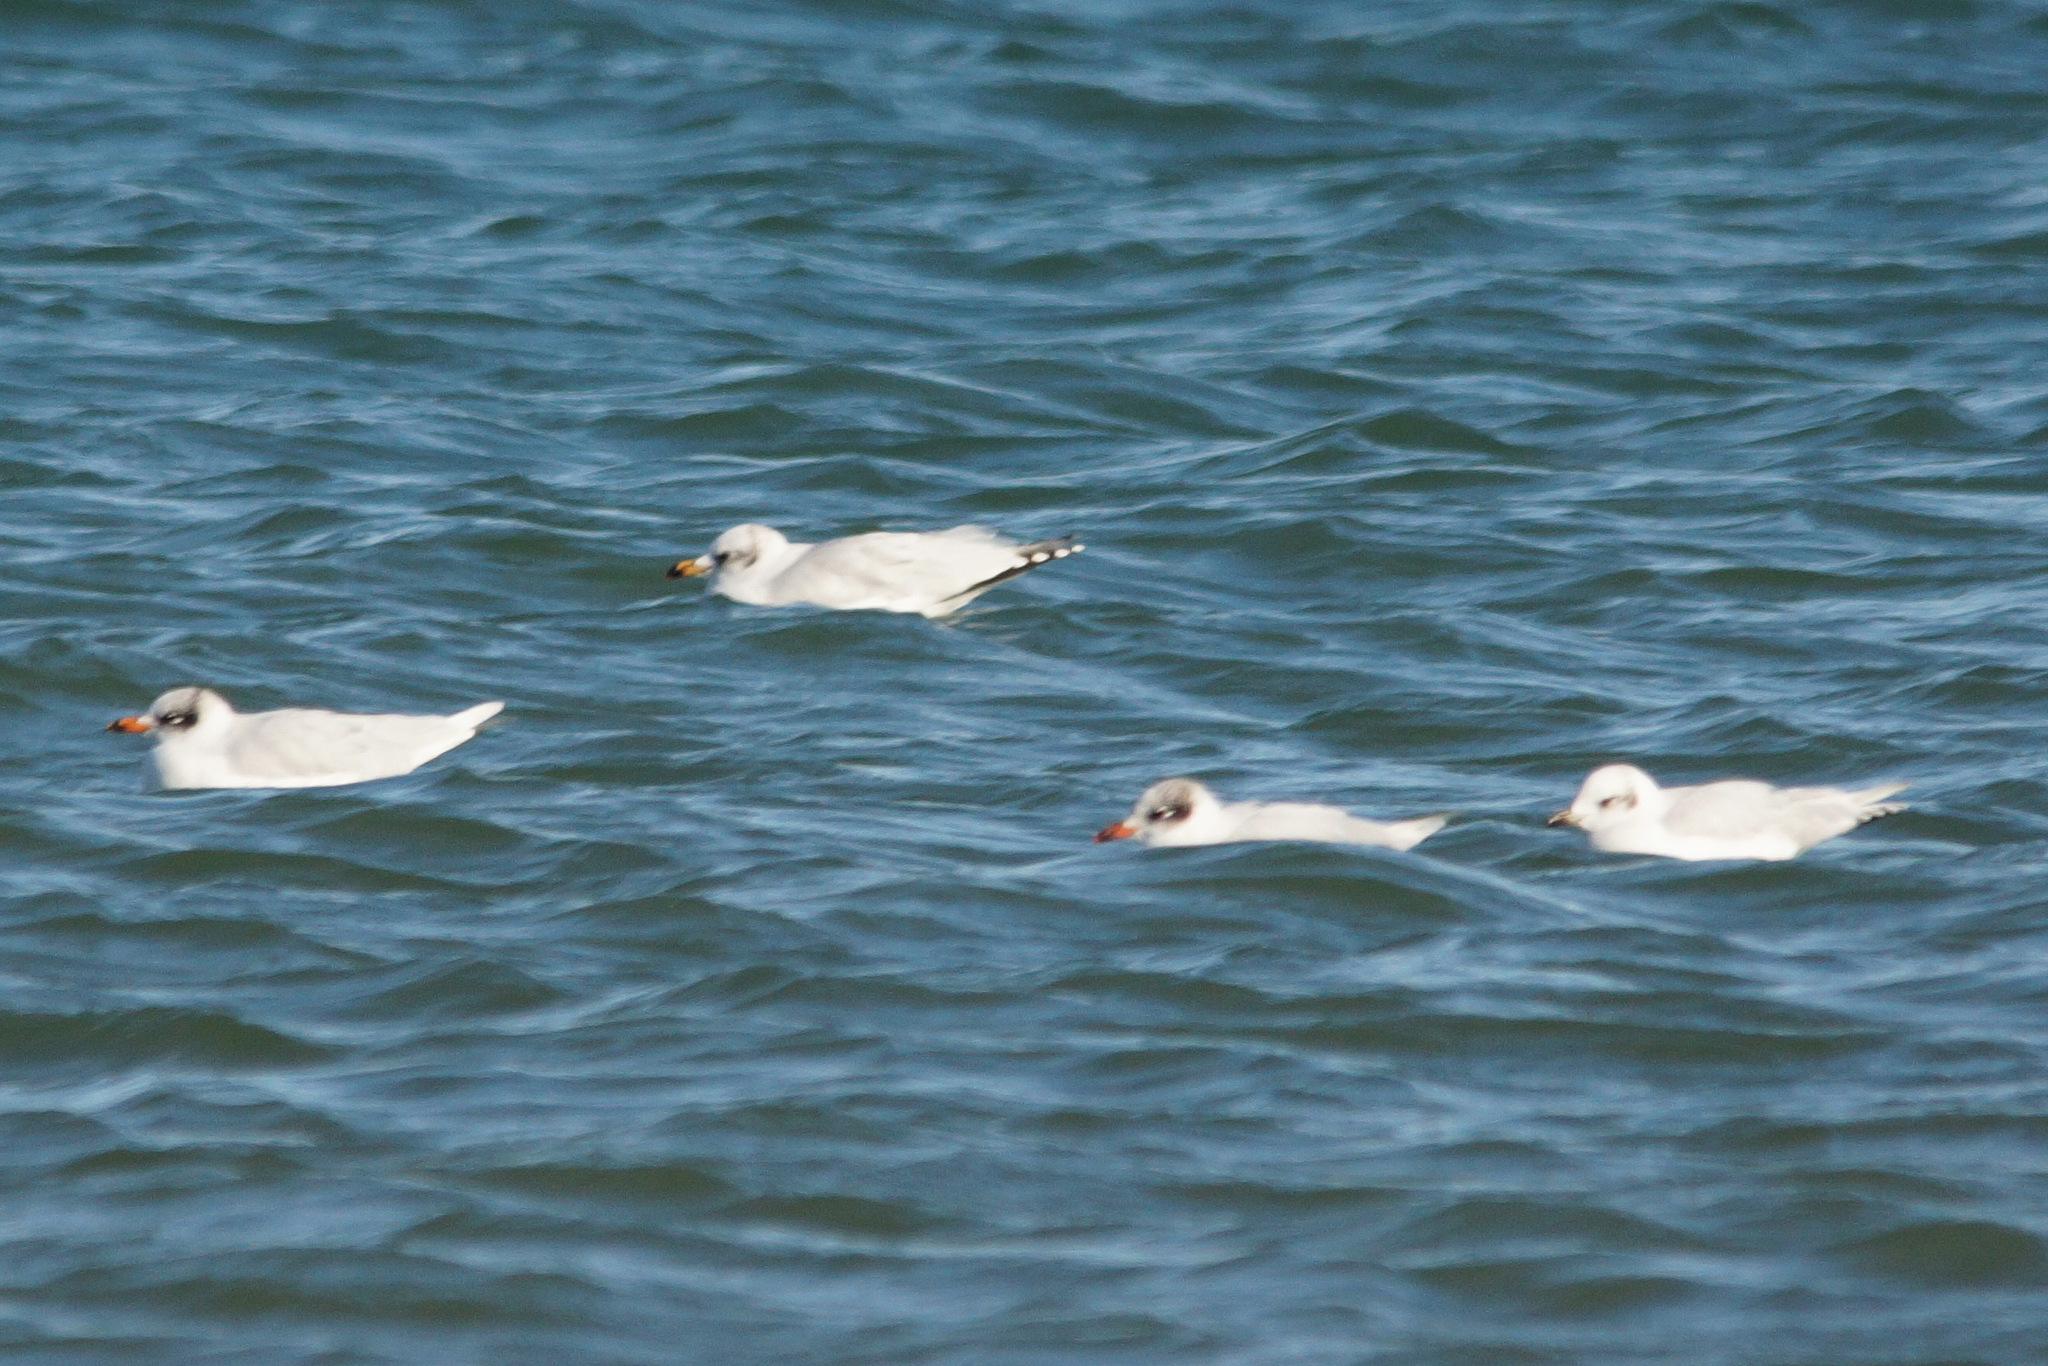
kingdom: Animalia
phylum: Chordata
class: Aves
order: Charadriiformes
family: Laridae
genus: Ichthyaetus
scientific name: Ichthyaetus melanocephalus
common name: Mediterranean gull
